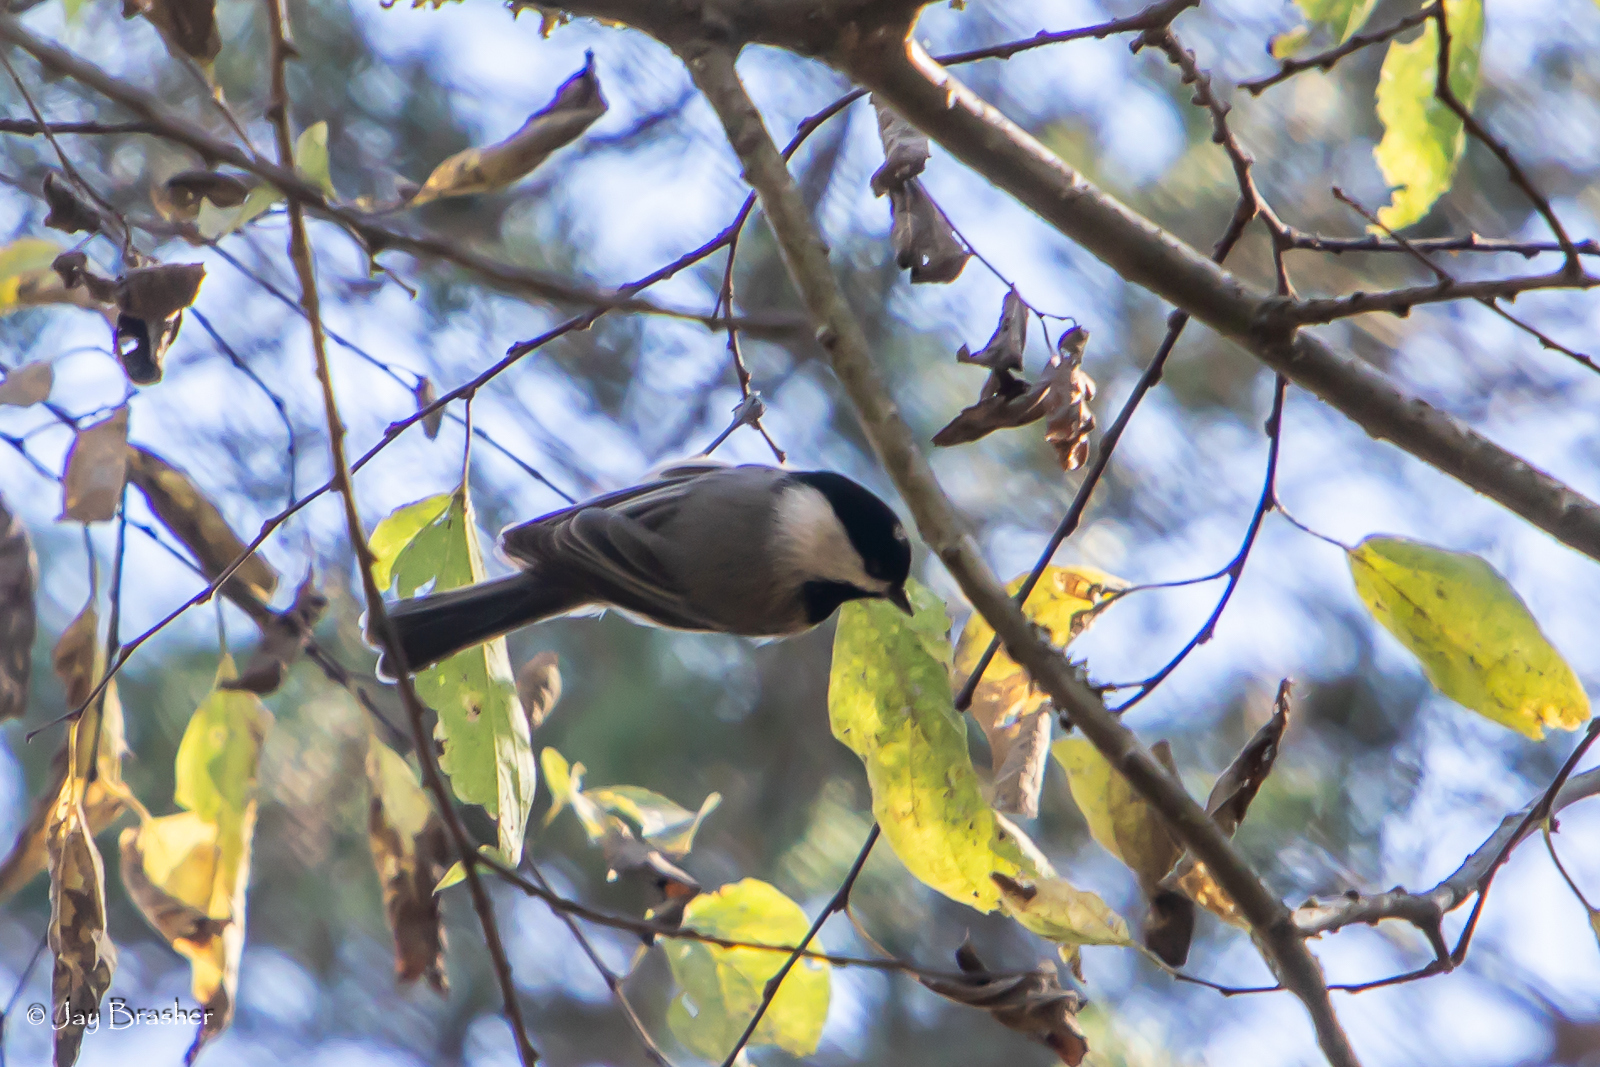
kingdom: Animalia
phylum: Chordata
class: Aves
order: Passeriformes
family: Paridae
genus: Poecile
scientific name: Poecile carolinensis
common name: Carolina chickadee
